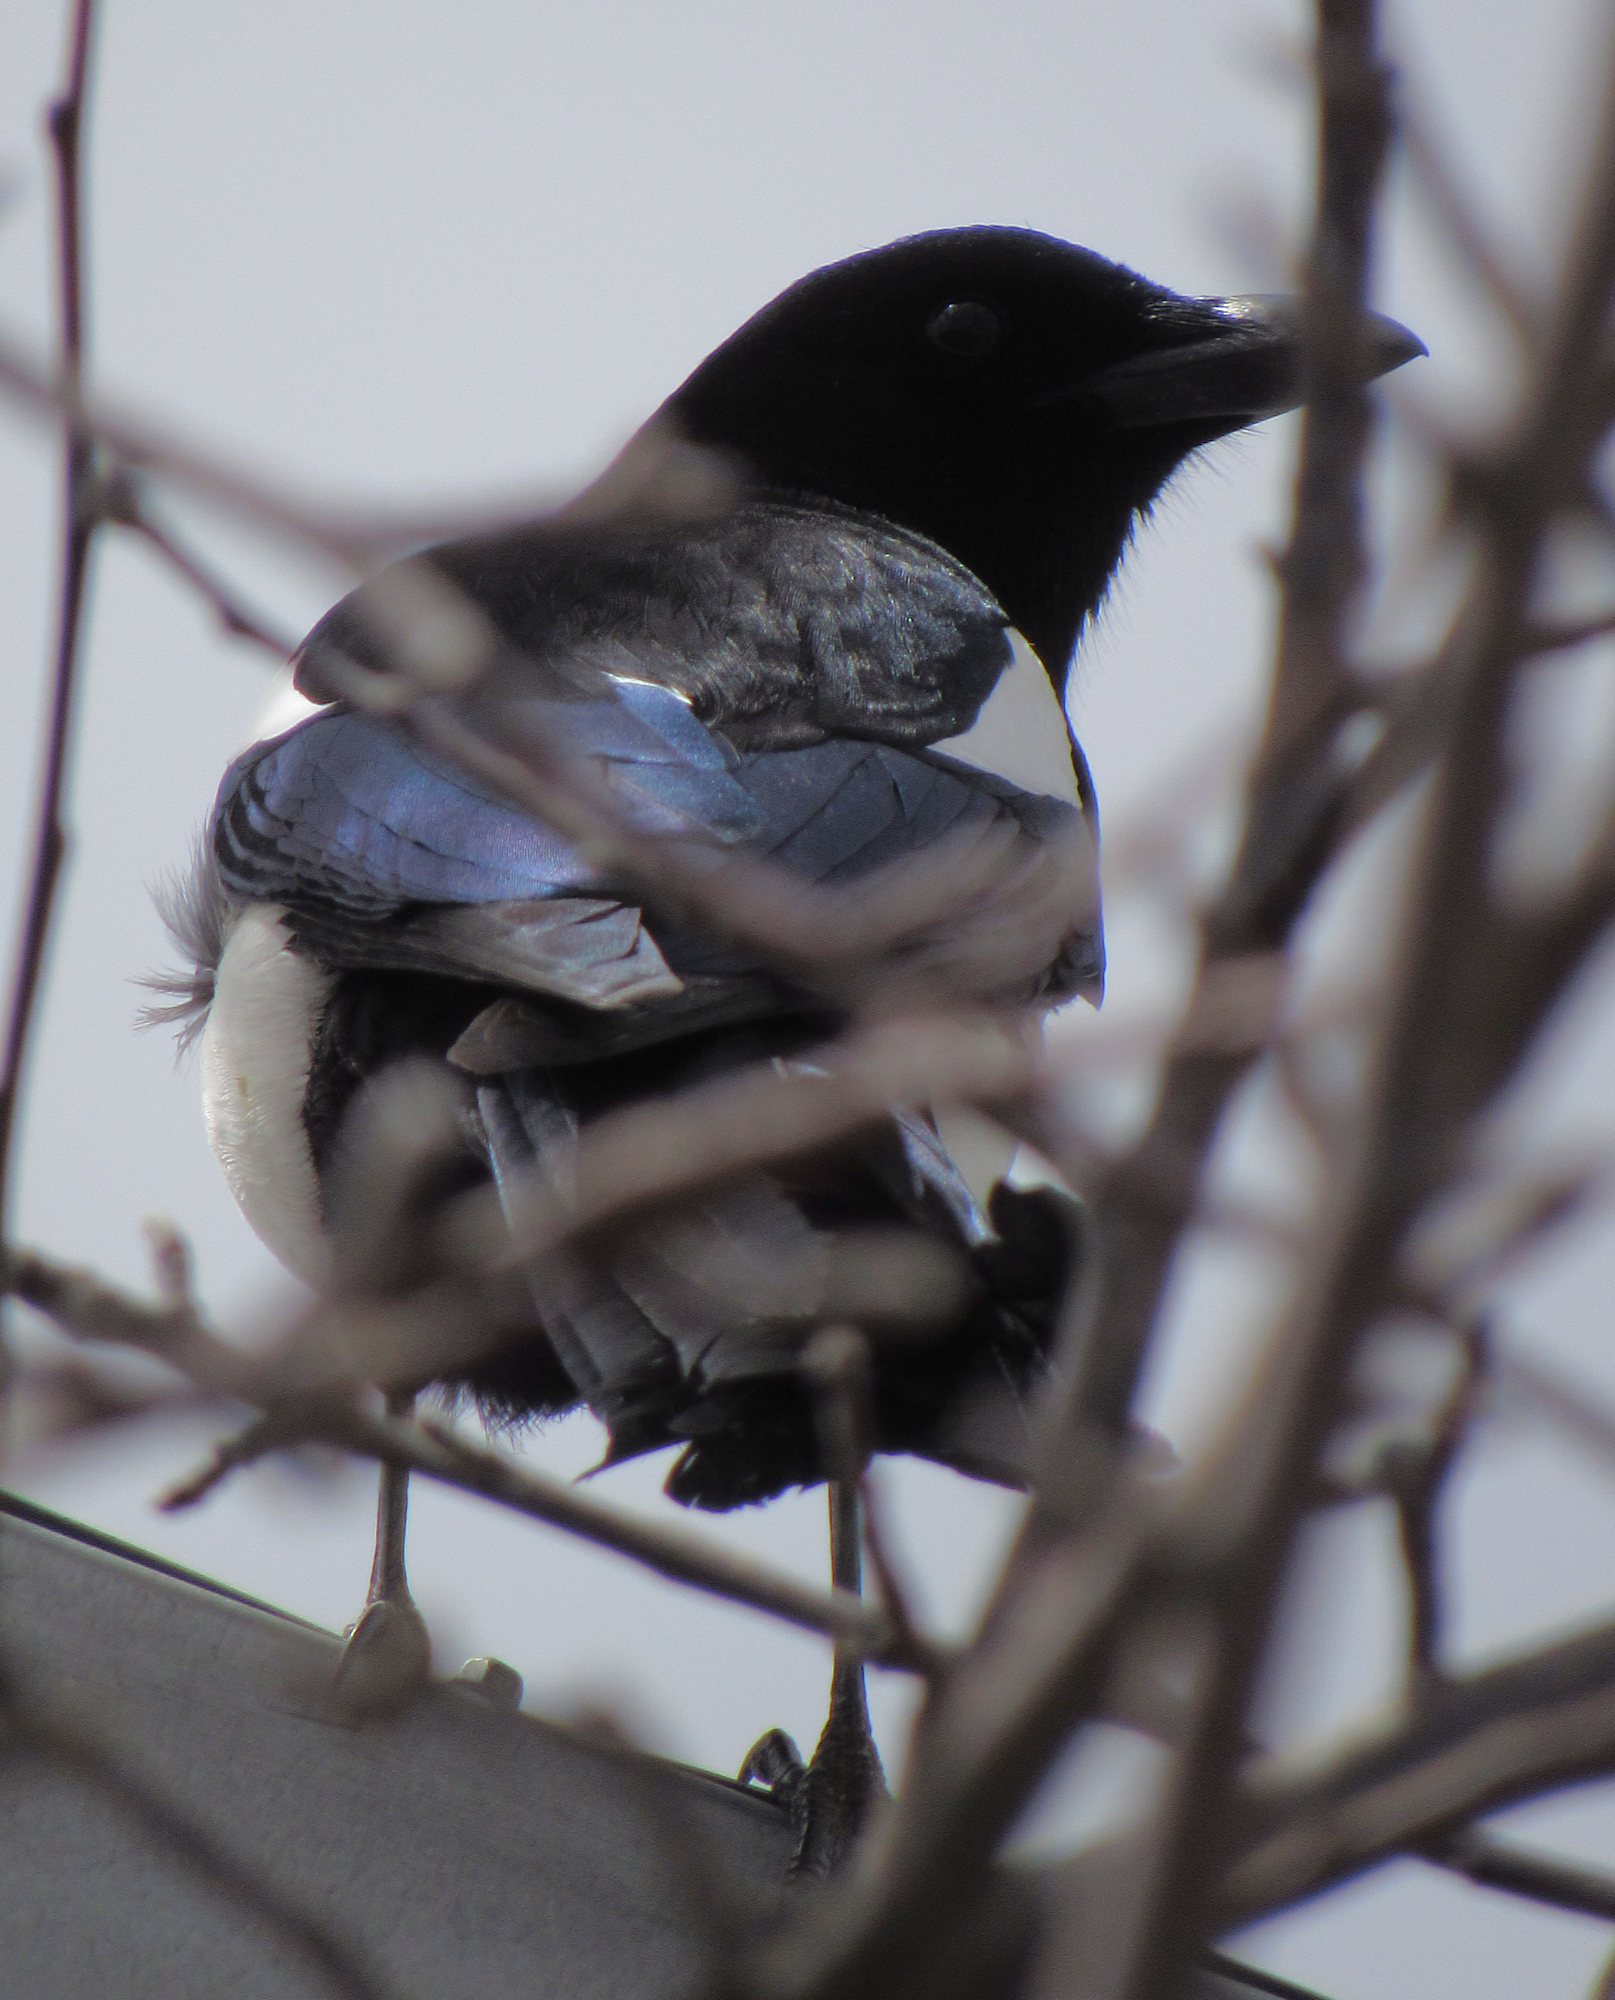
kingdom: Animalia
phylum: Chordata
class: Aves
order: Passeriformes
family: Corvidae
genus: Pica
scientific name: Pica hudsonia
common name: Black-billed magpie
